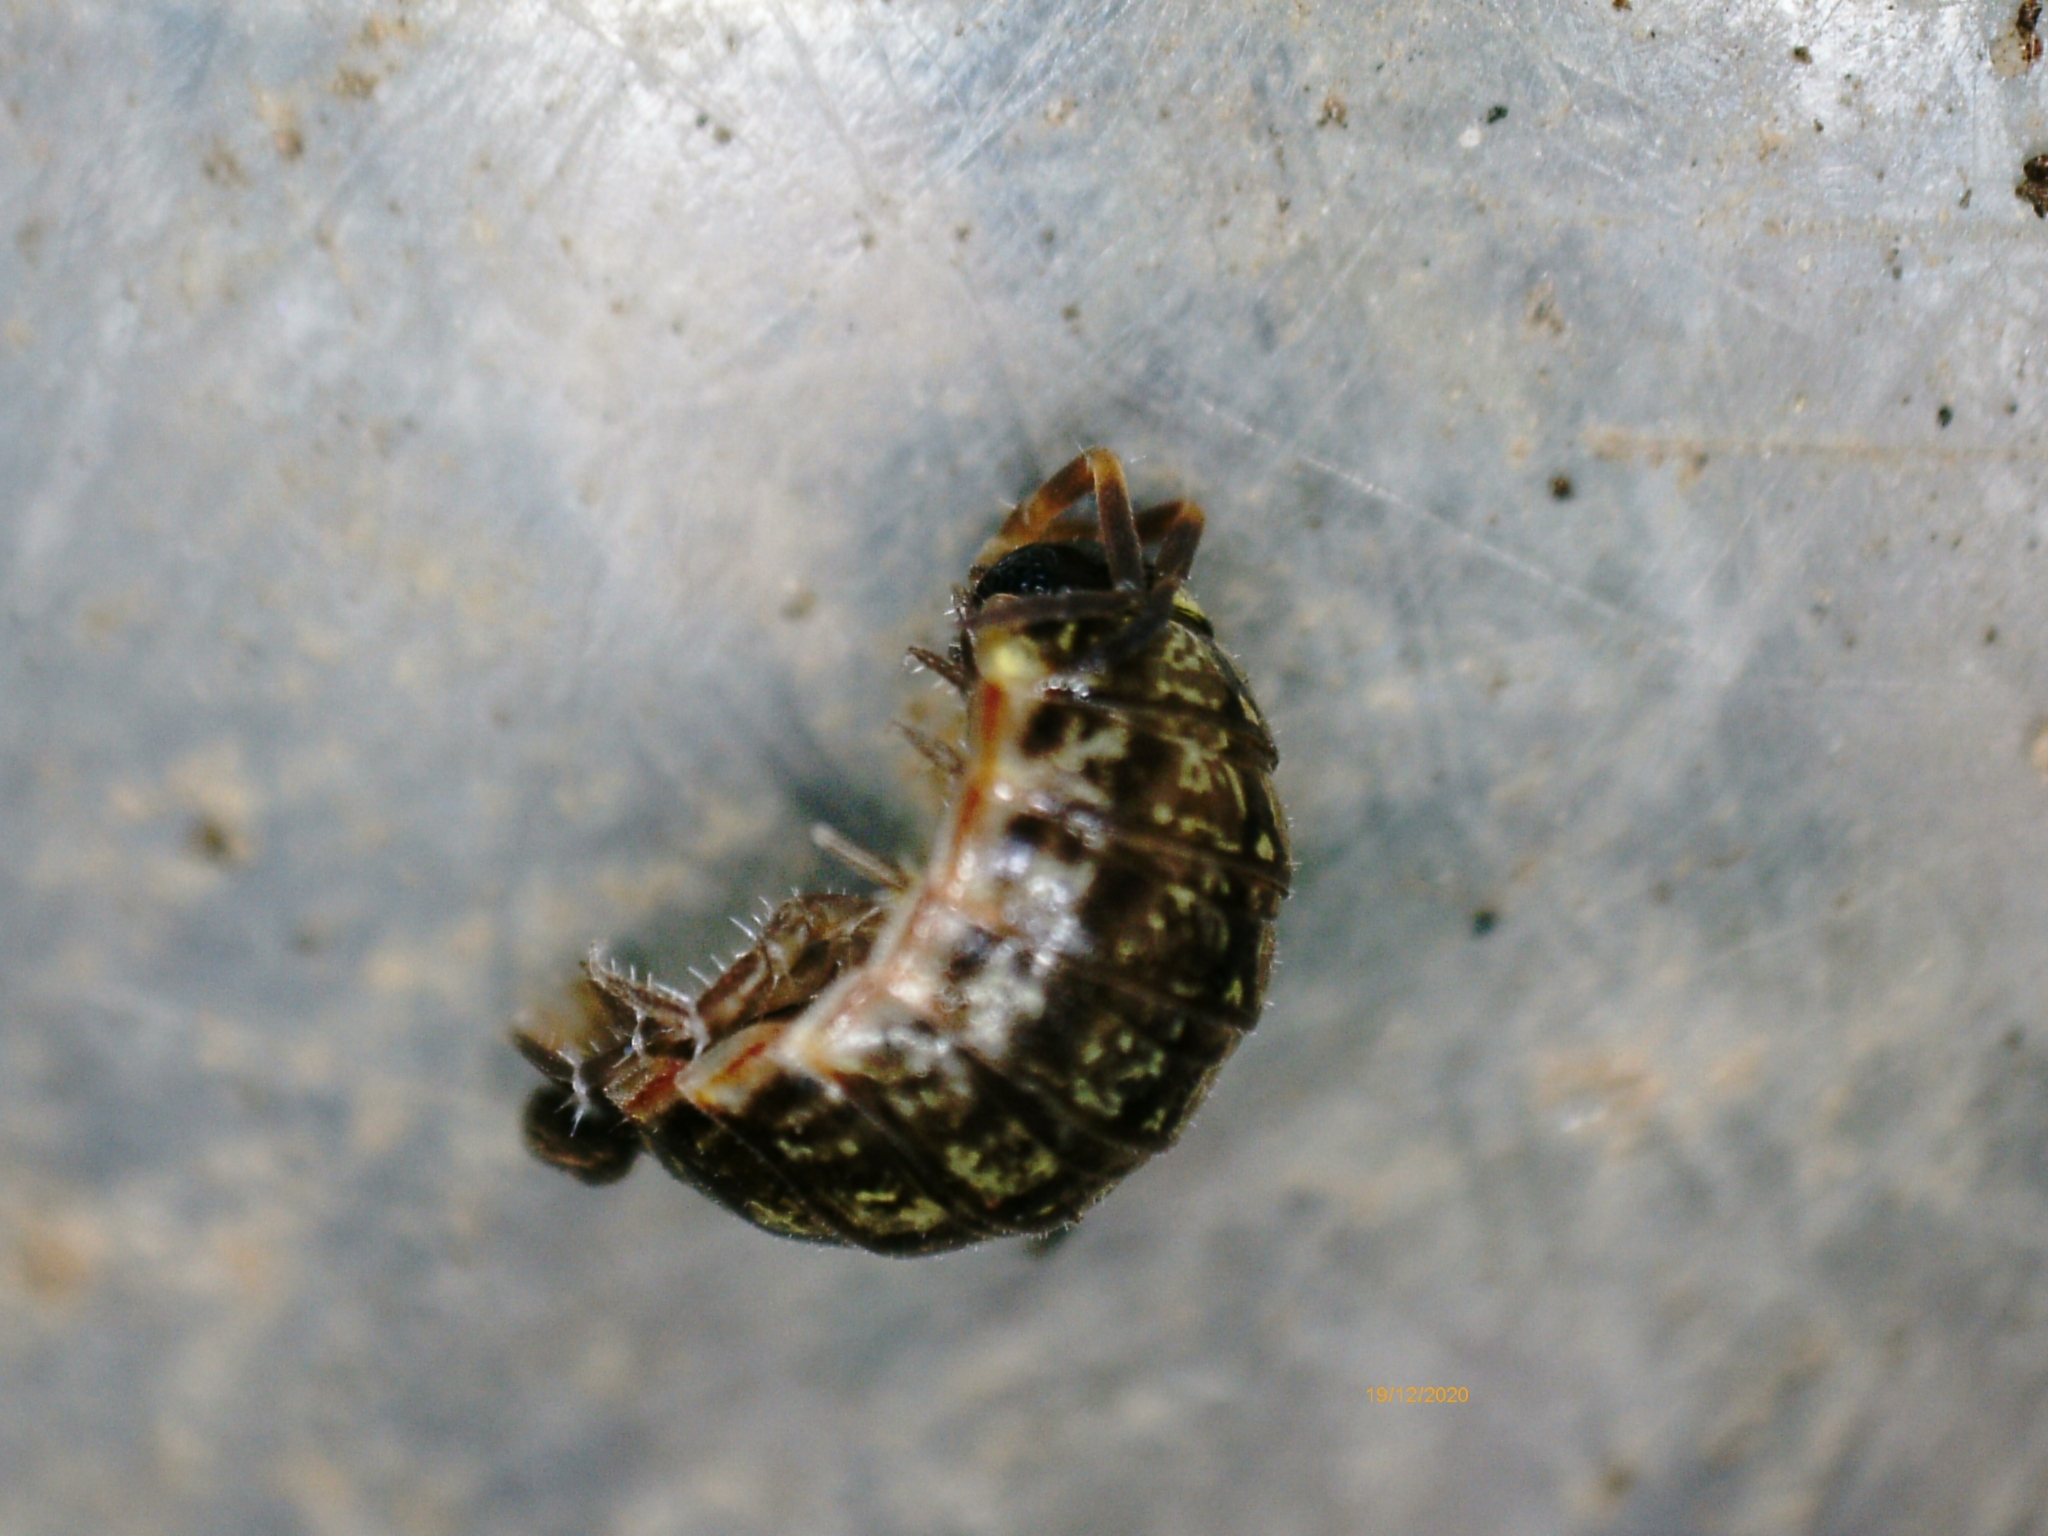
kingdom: Animalia
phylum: Arthropoda
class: Malacostraca
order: Isopoda
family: Philosciidae
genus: Philoscia
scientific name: Philoscia muscorum
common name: Common striped woodlouse
